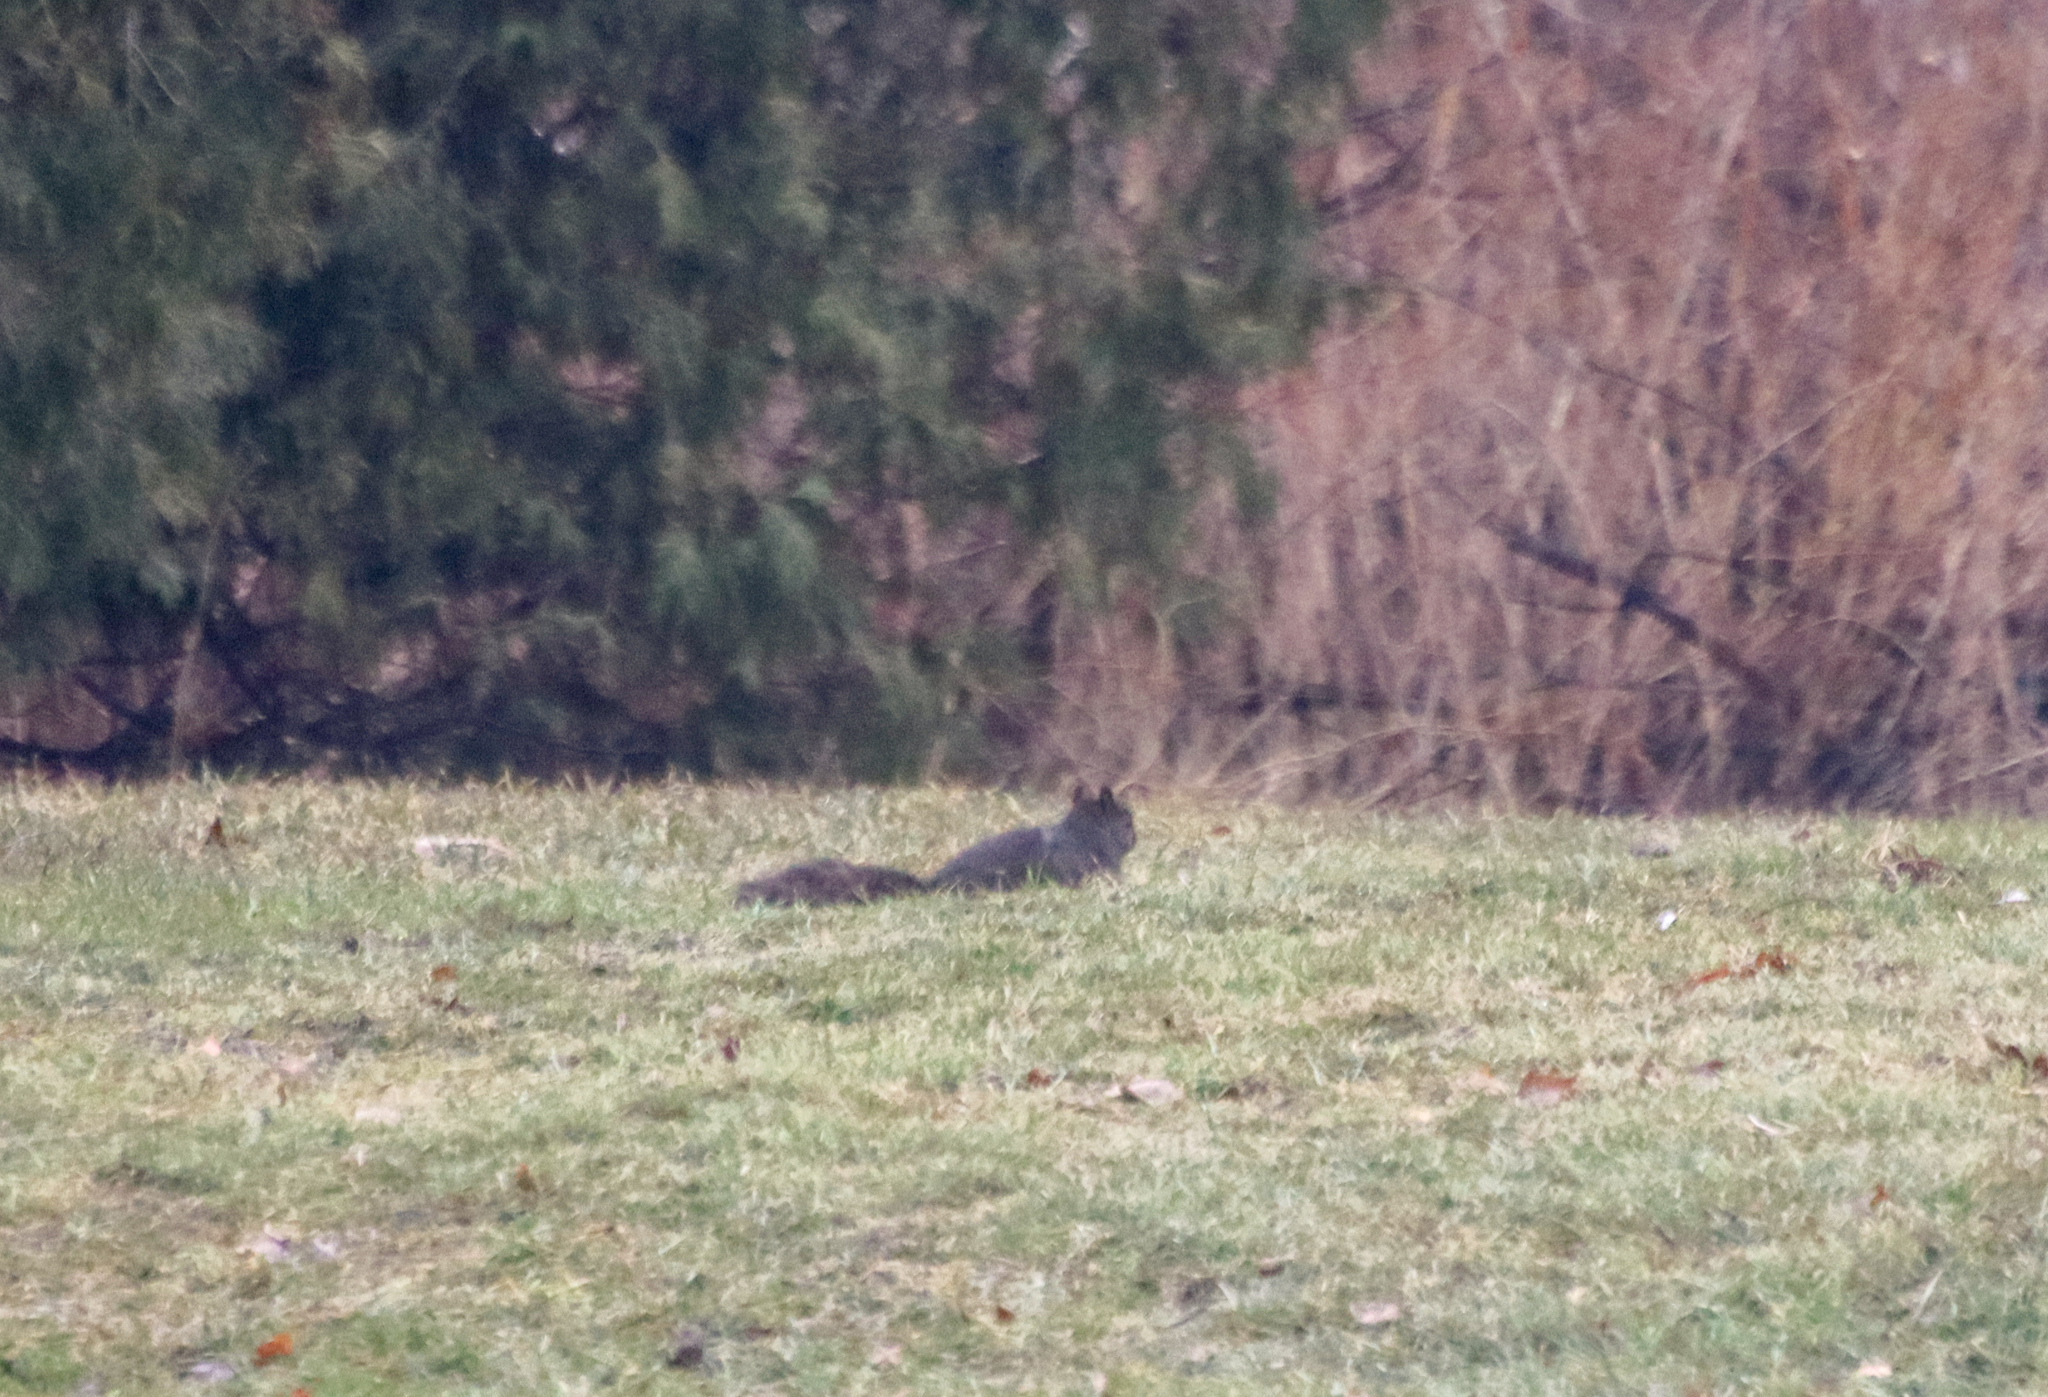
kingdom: Animalia
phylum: Chordata
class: Mammalia
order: Rodentia
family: Sciuridae
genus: Sciurus
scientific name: Sciurus carolinensis
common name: Eastern gray squirrel
